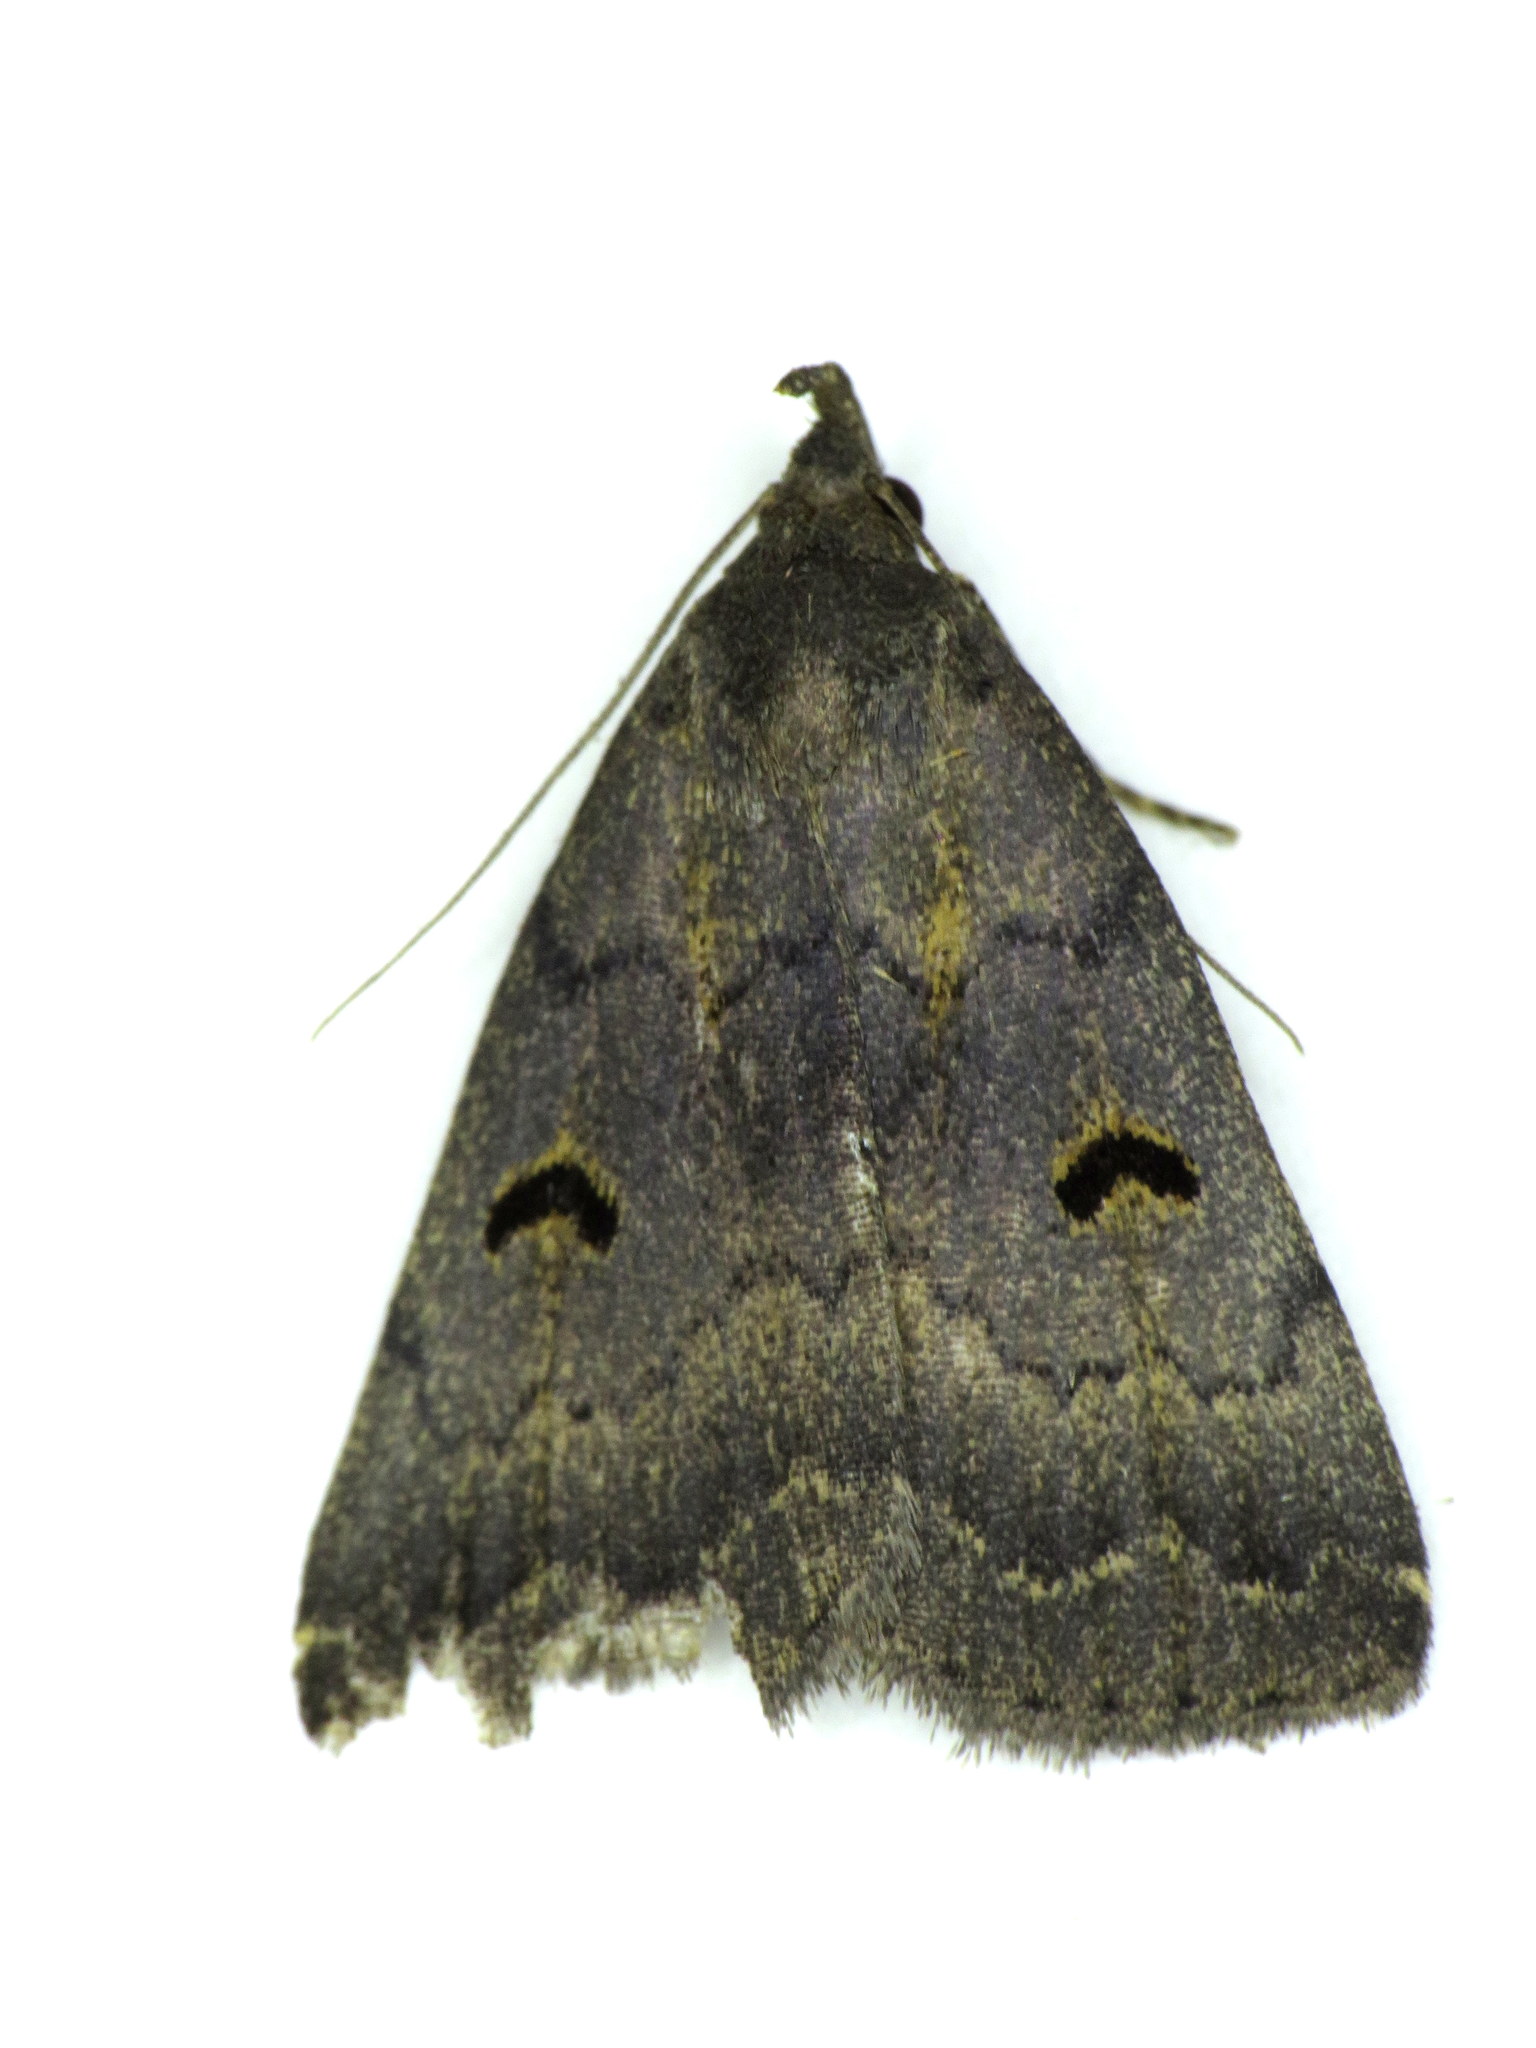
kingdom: Animalia
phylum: Arthropoda
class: Insecta
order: Lepidoptera
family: Erebidae
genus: Phalaenostola
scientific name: Phalaenostola hanhami
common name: Hanham's owlet
